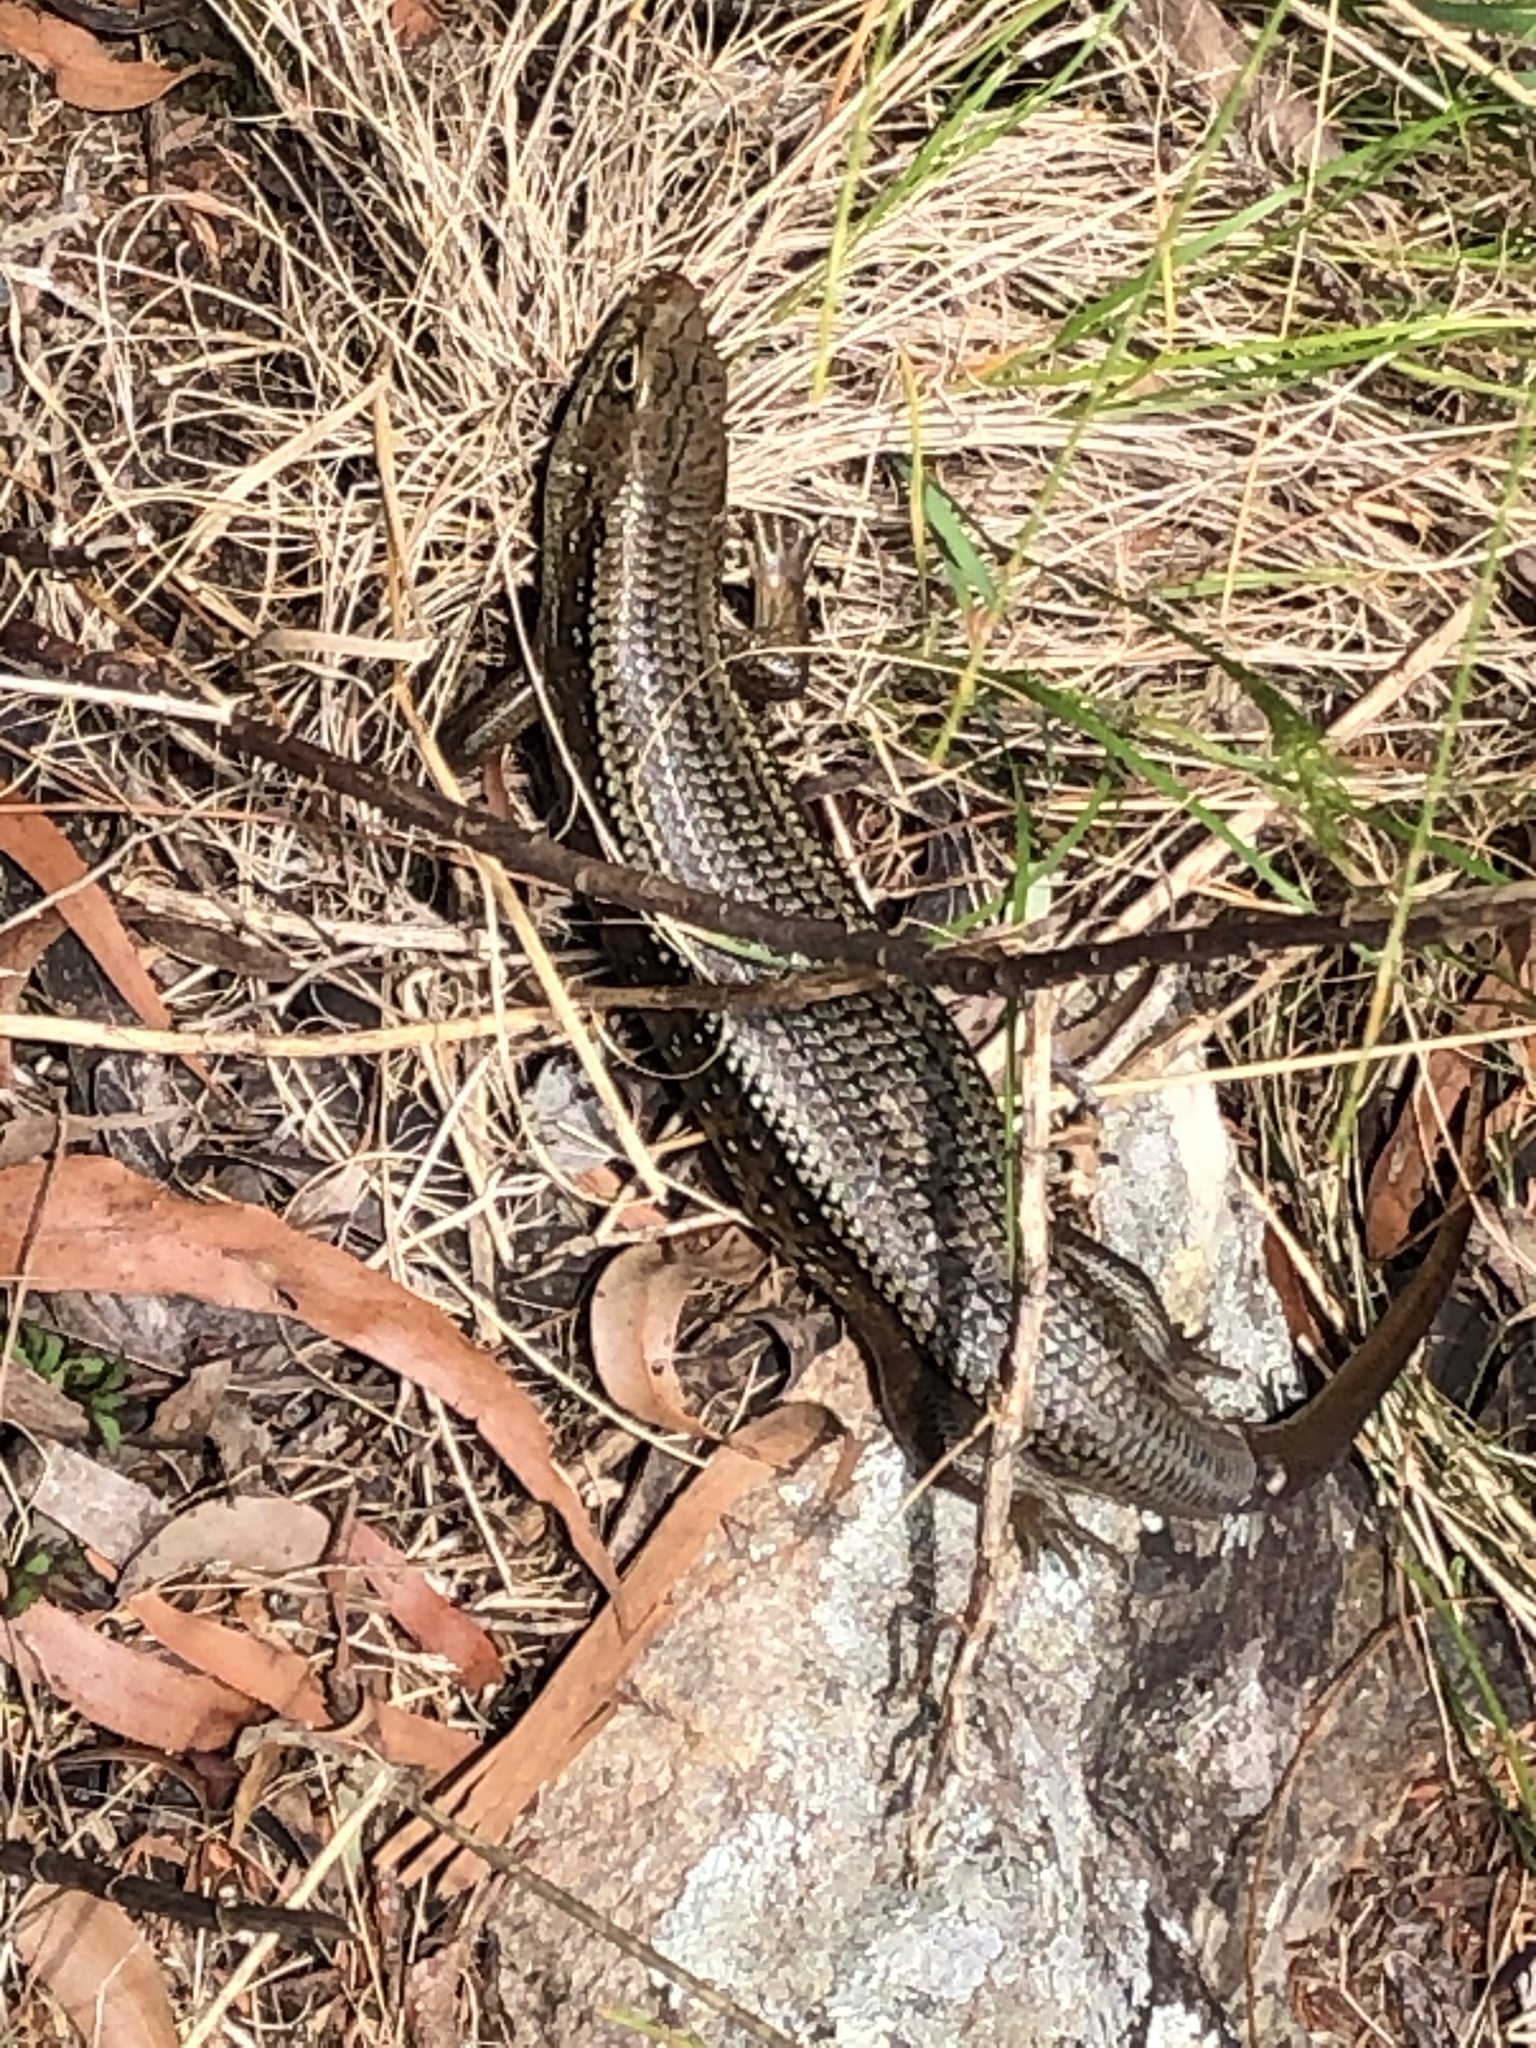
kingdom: Animalia
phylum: Chordata
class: Squamata
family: Scincidae
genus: Bellatorias
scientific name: Bellatorias frerei
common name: Major skink
